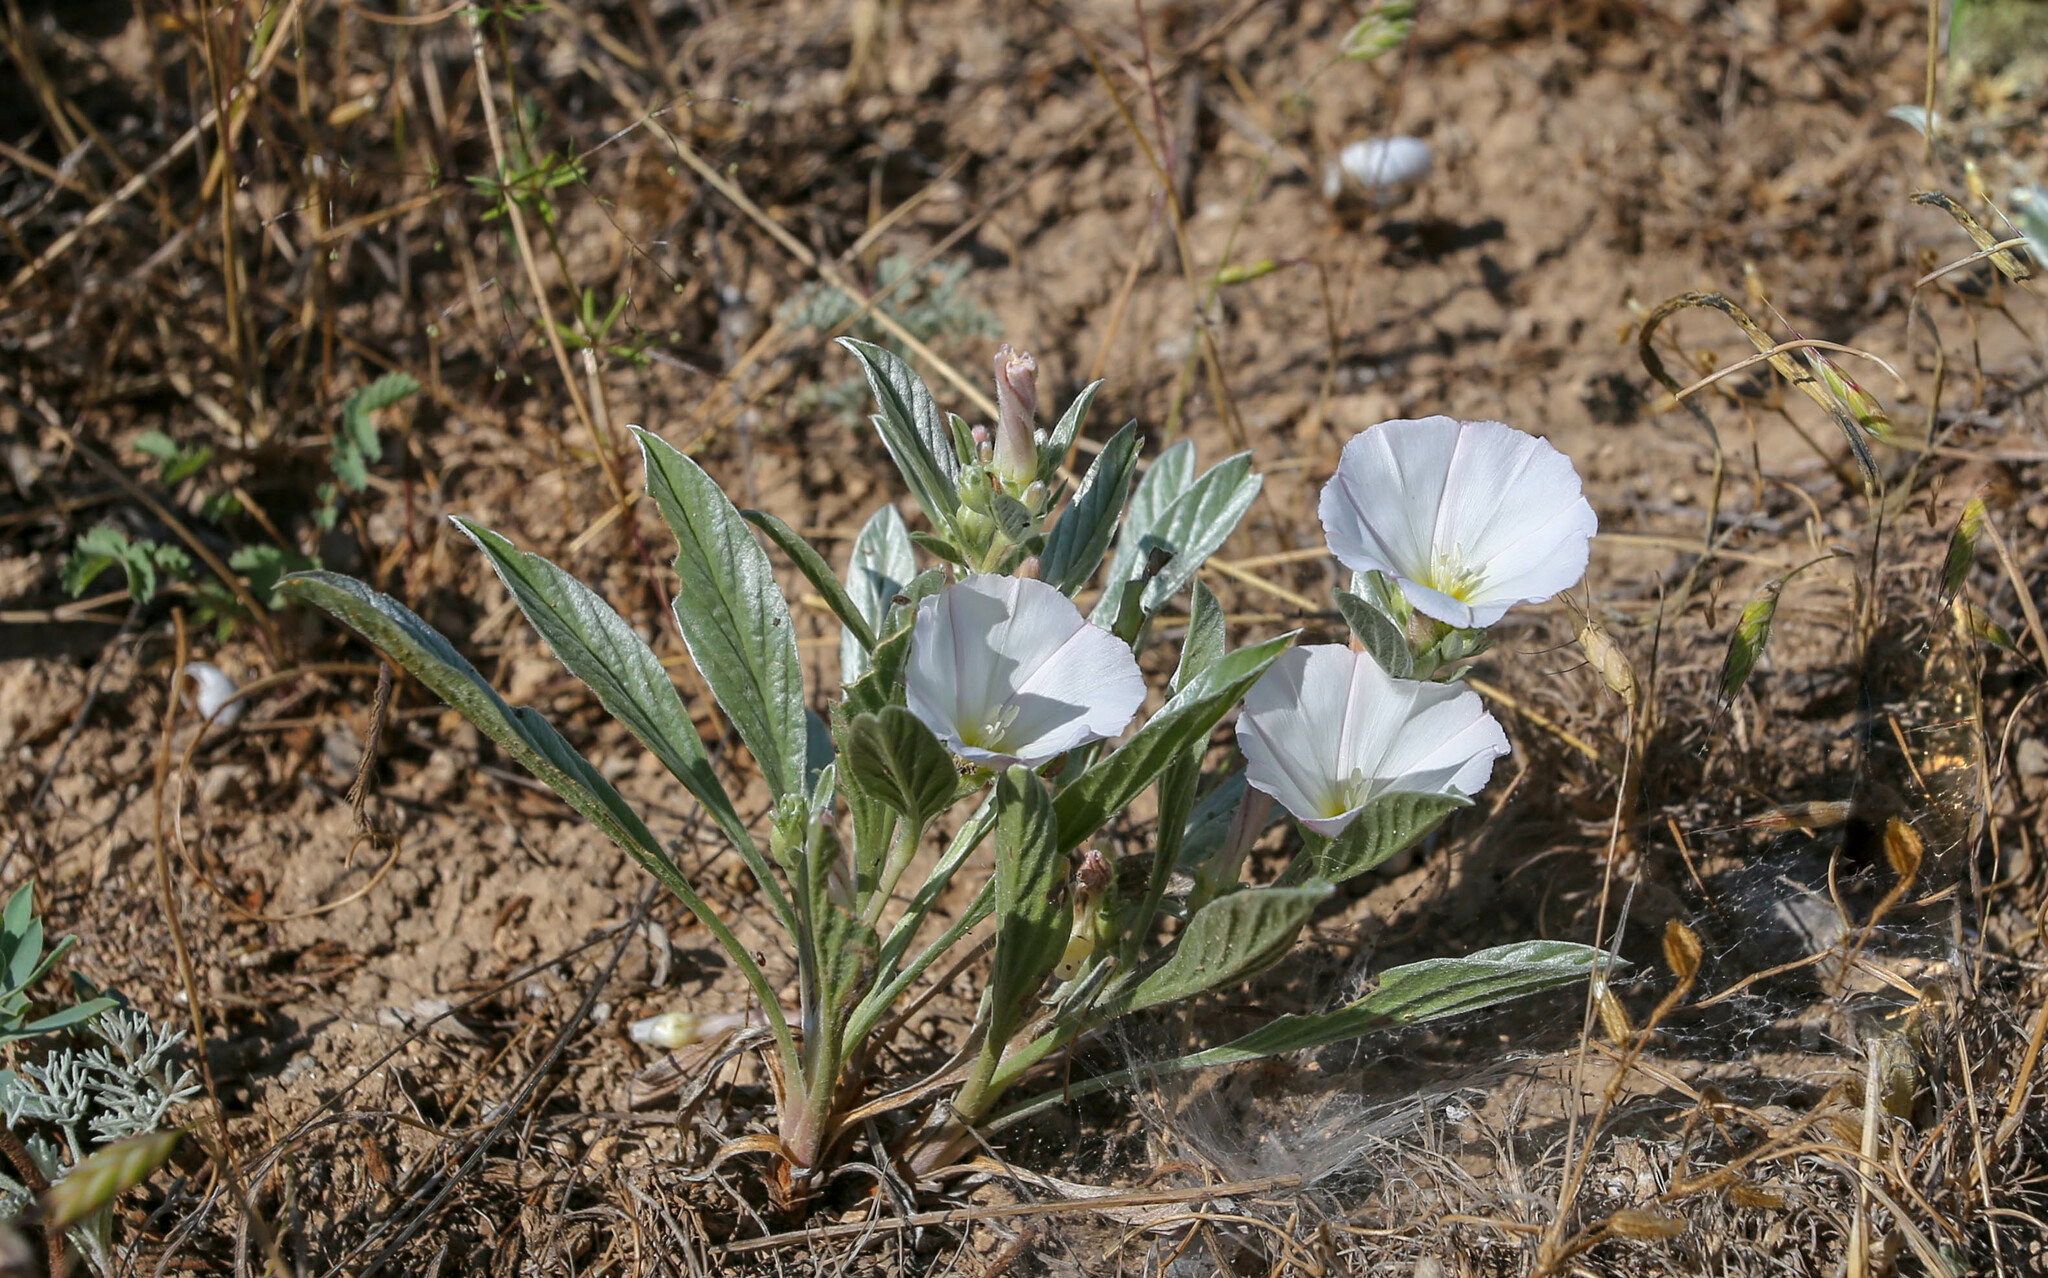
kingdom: Plantae
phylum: Tracheophyta
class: Magnoliopsida
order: Solanales
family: Convolvulaceae
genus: Convolvulus
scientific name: Convolvulus lineatus
